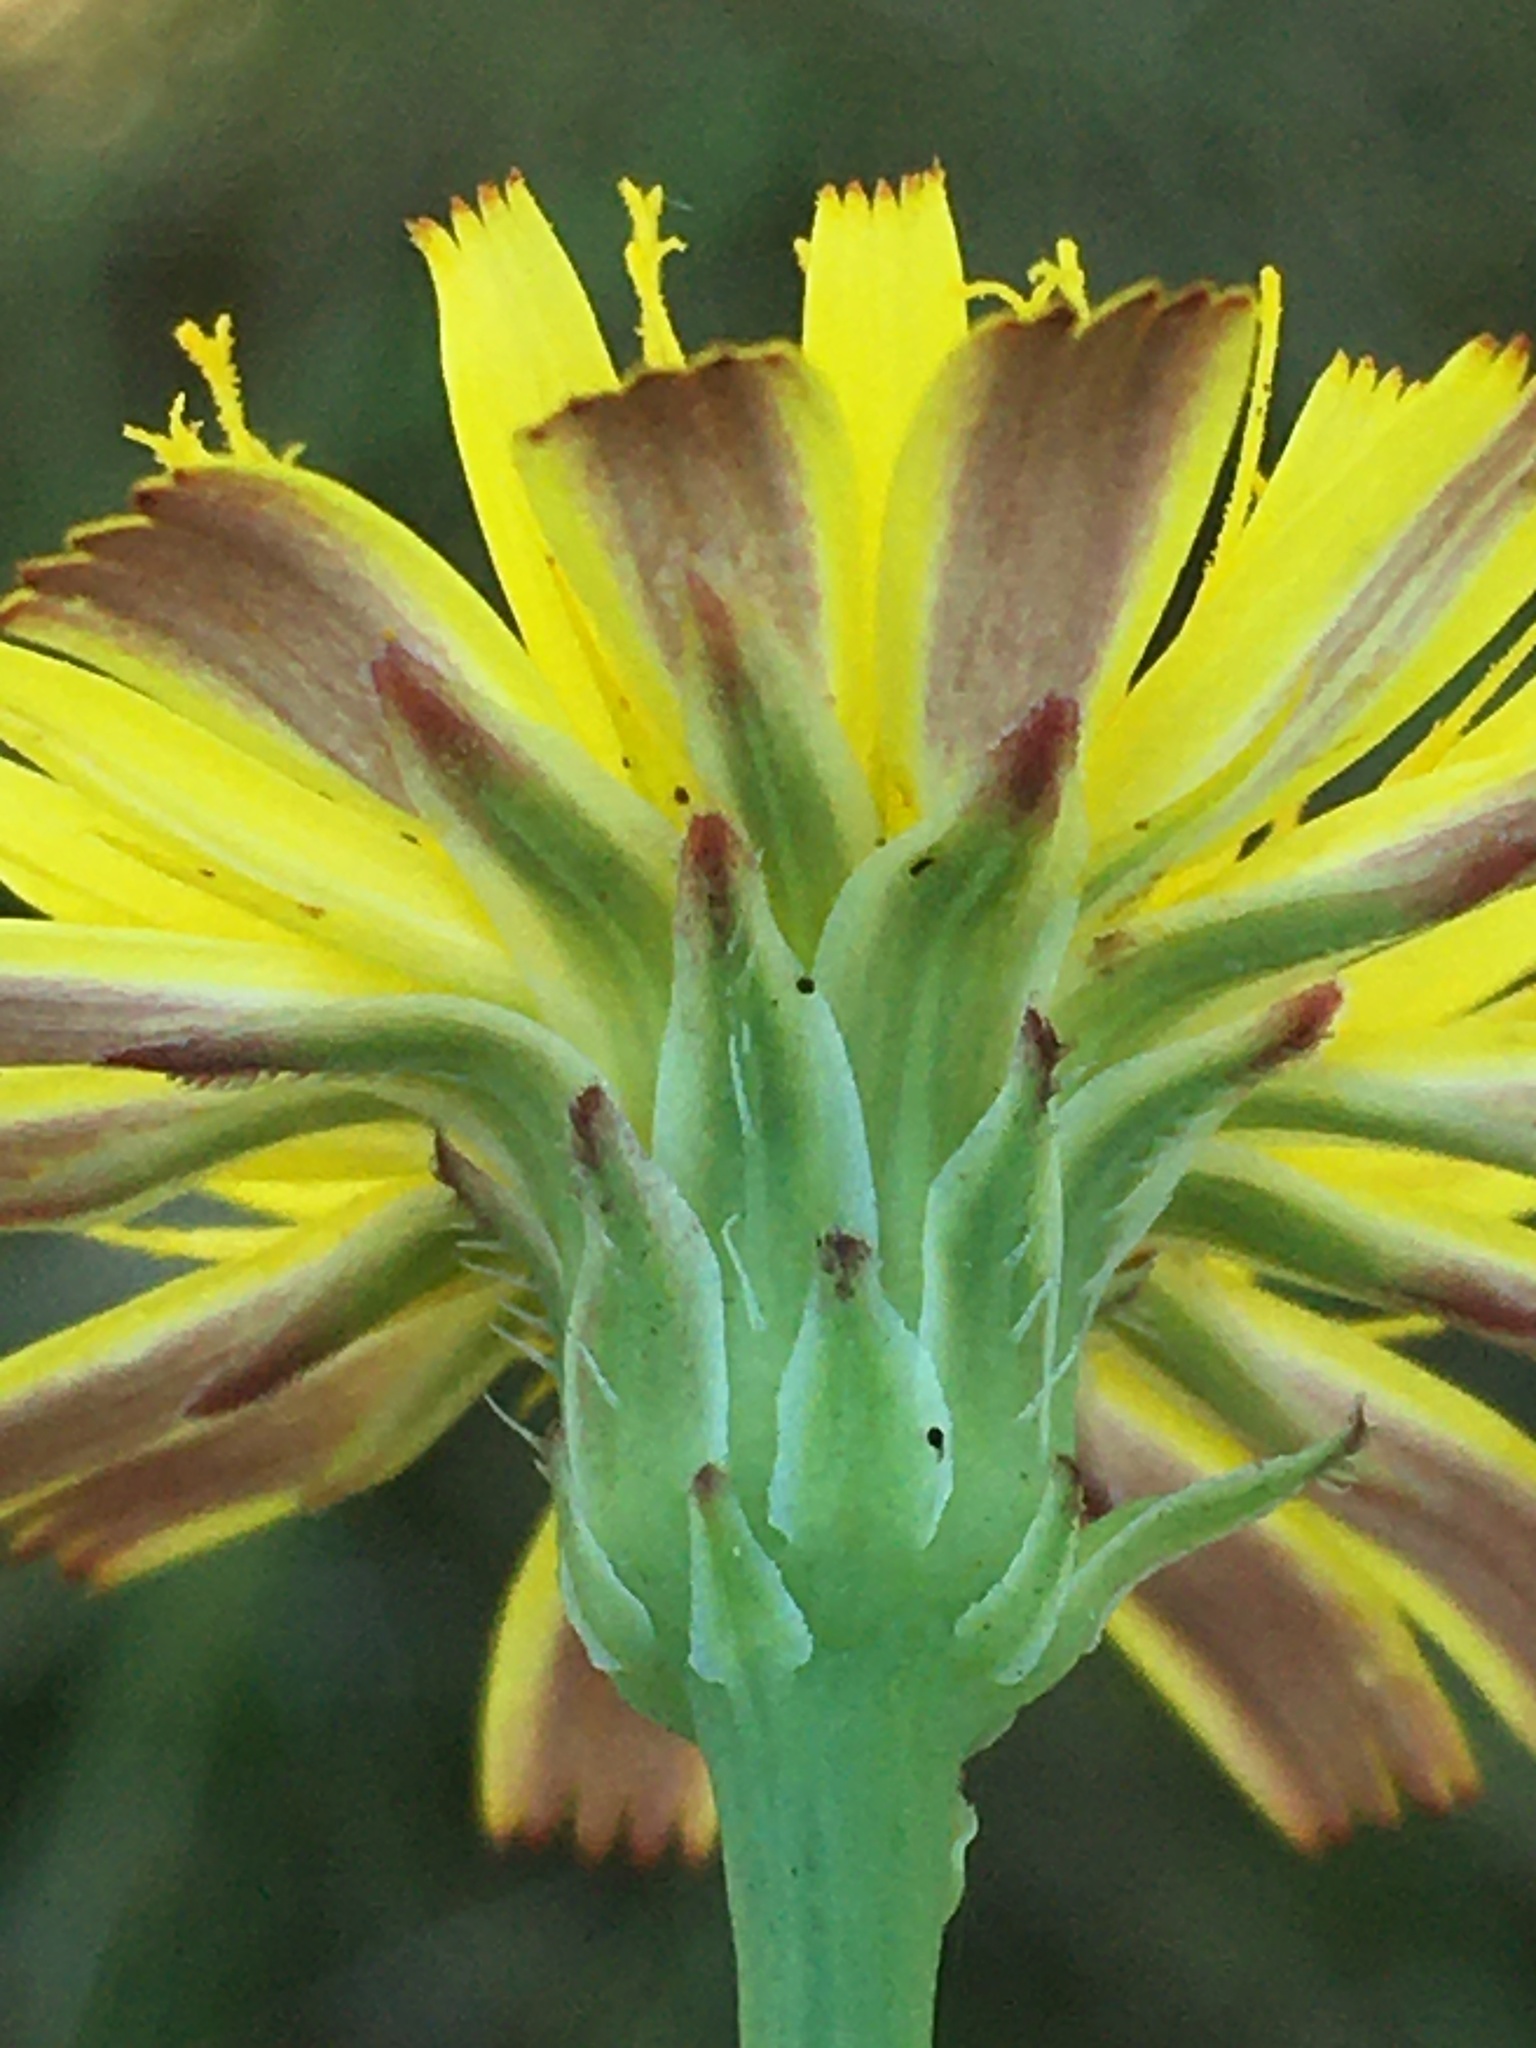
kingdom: Plantae
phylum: Tracheophyta
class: Magnoliopsida
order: Asterales
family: Asteraceae
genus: Hypochaeris
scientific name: Hypochaeris radicata
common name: Flatweed
